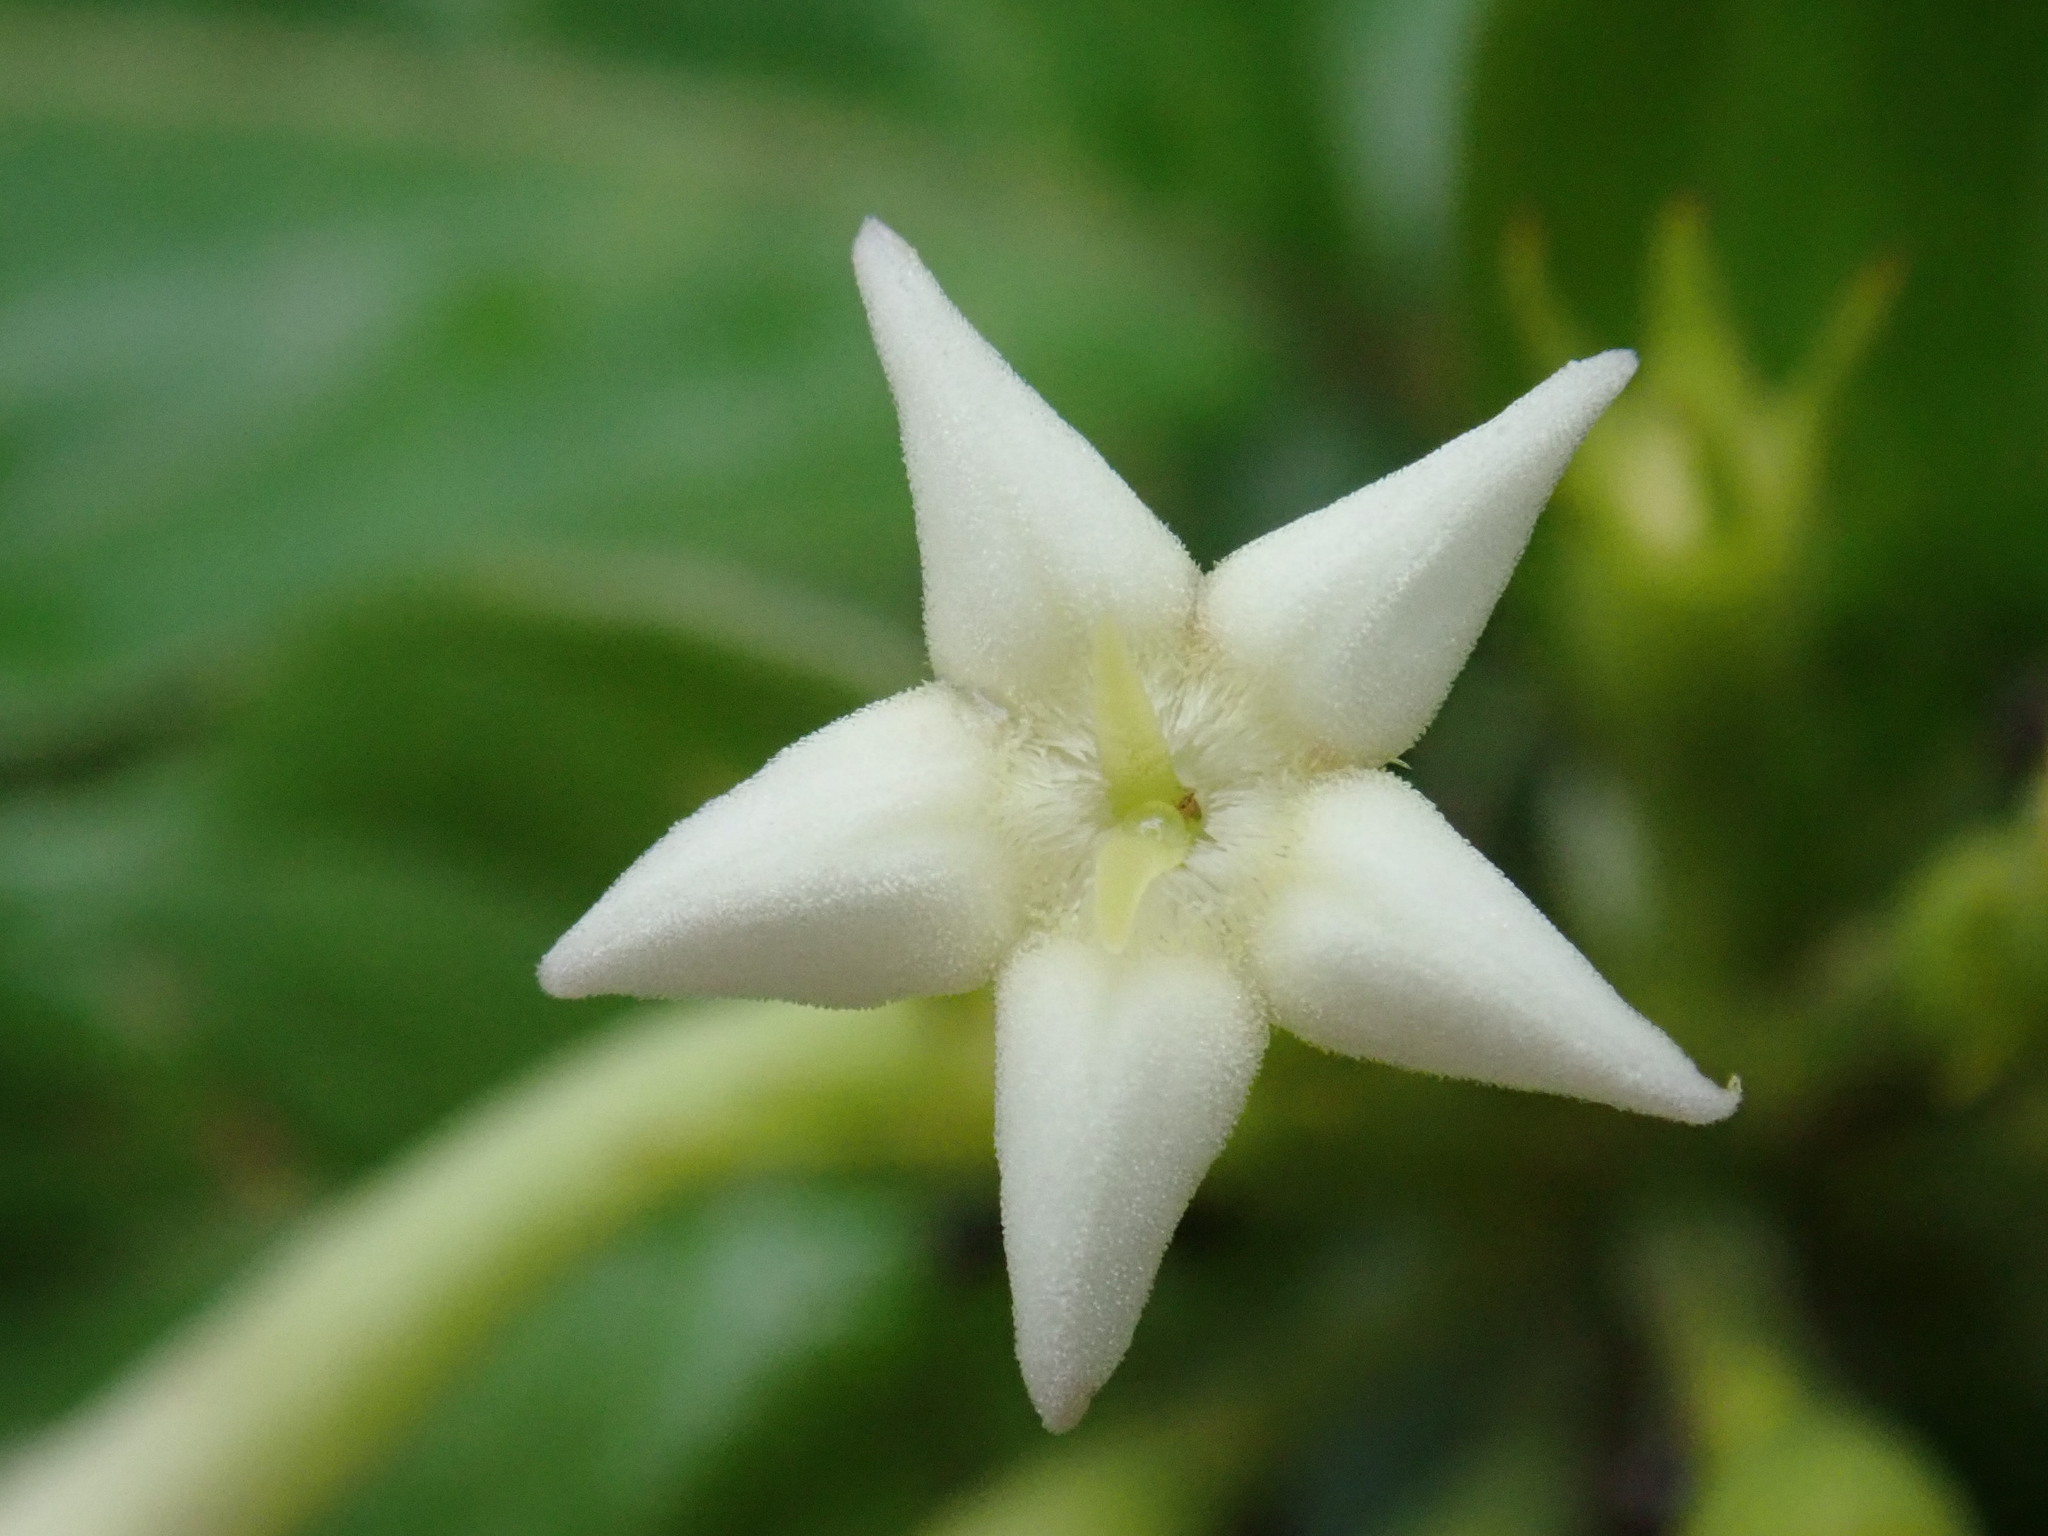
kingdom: Plantae
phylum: Tracheophyta
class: Magnoliopsida
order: Gentianales
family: Rubiaceae
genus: Mussaenda
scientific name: Mussaenda pubescens
